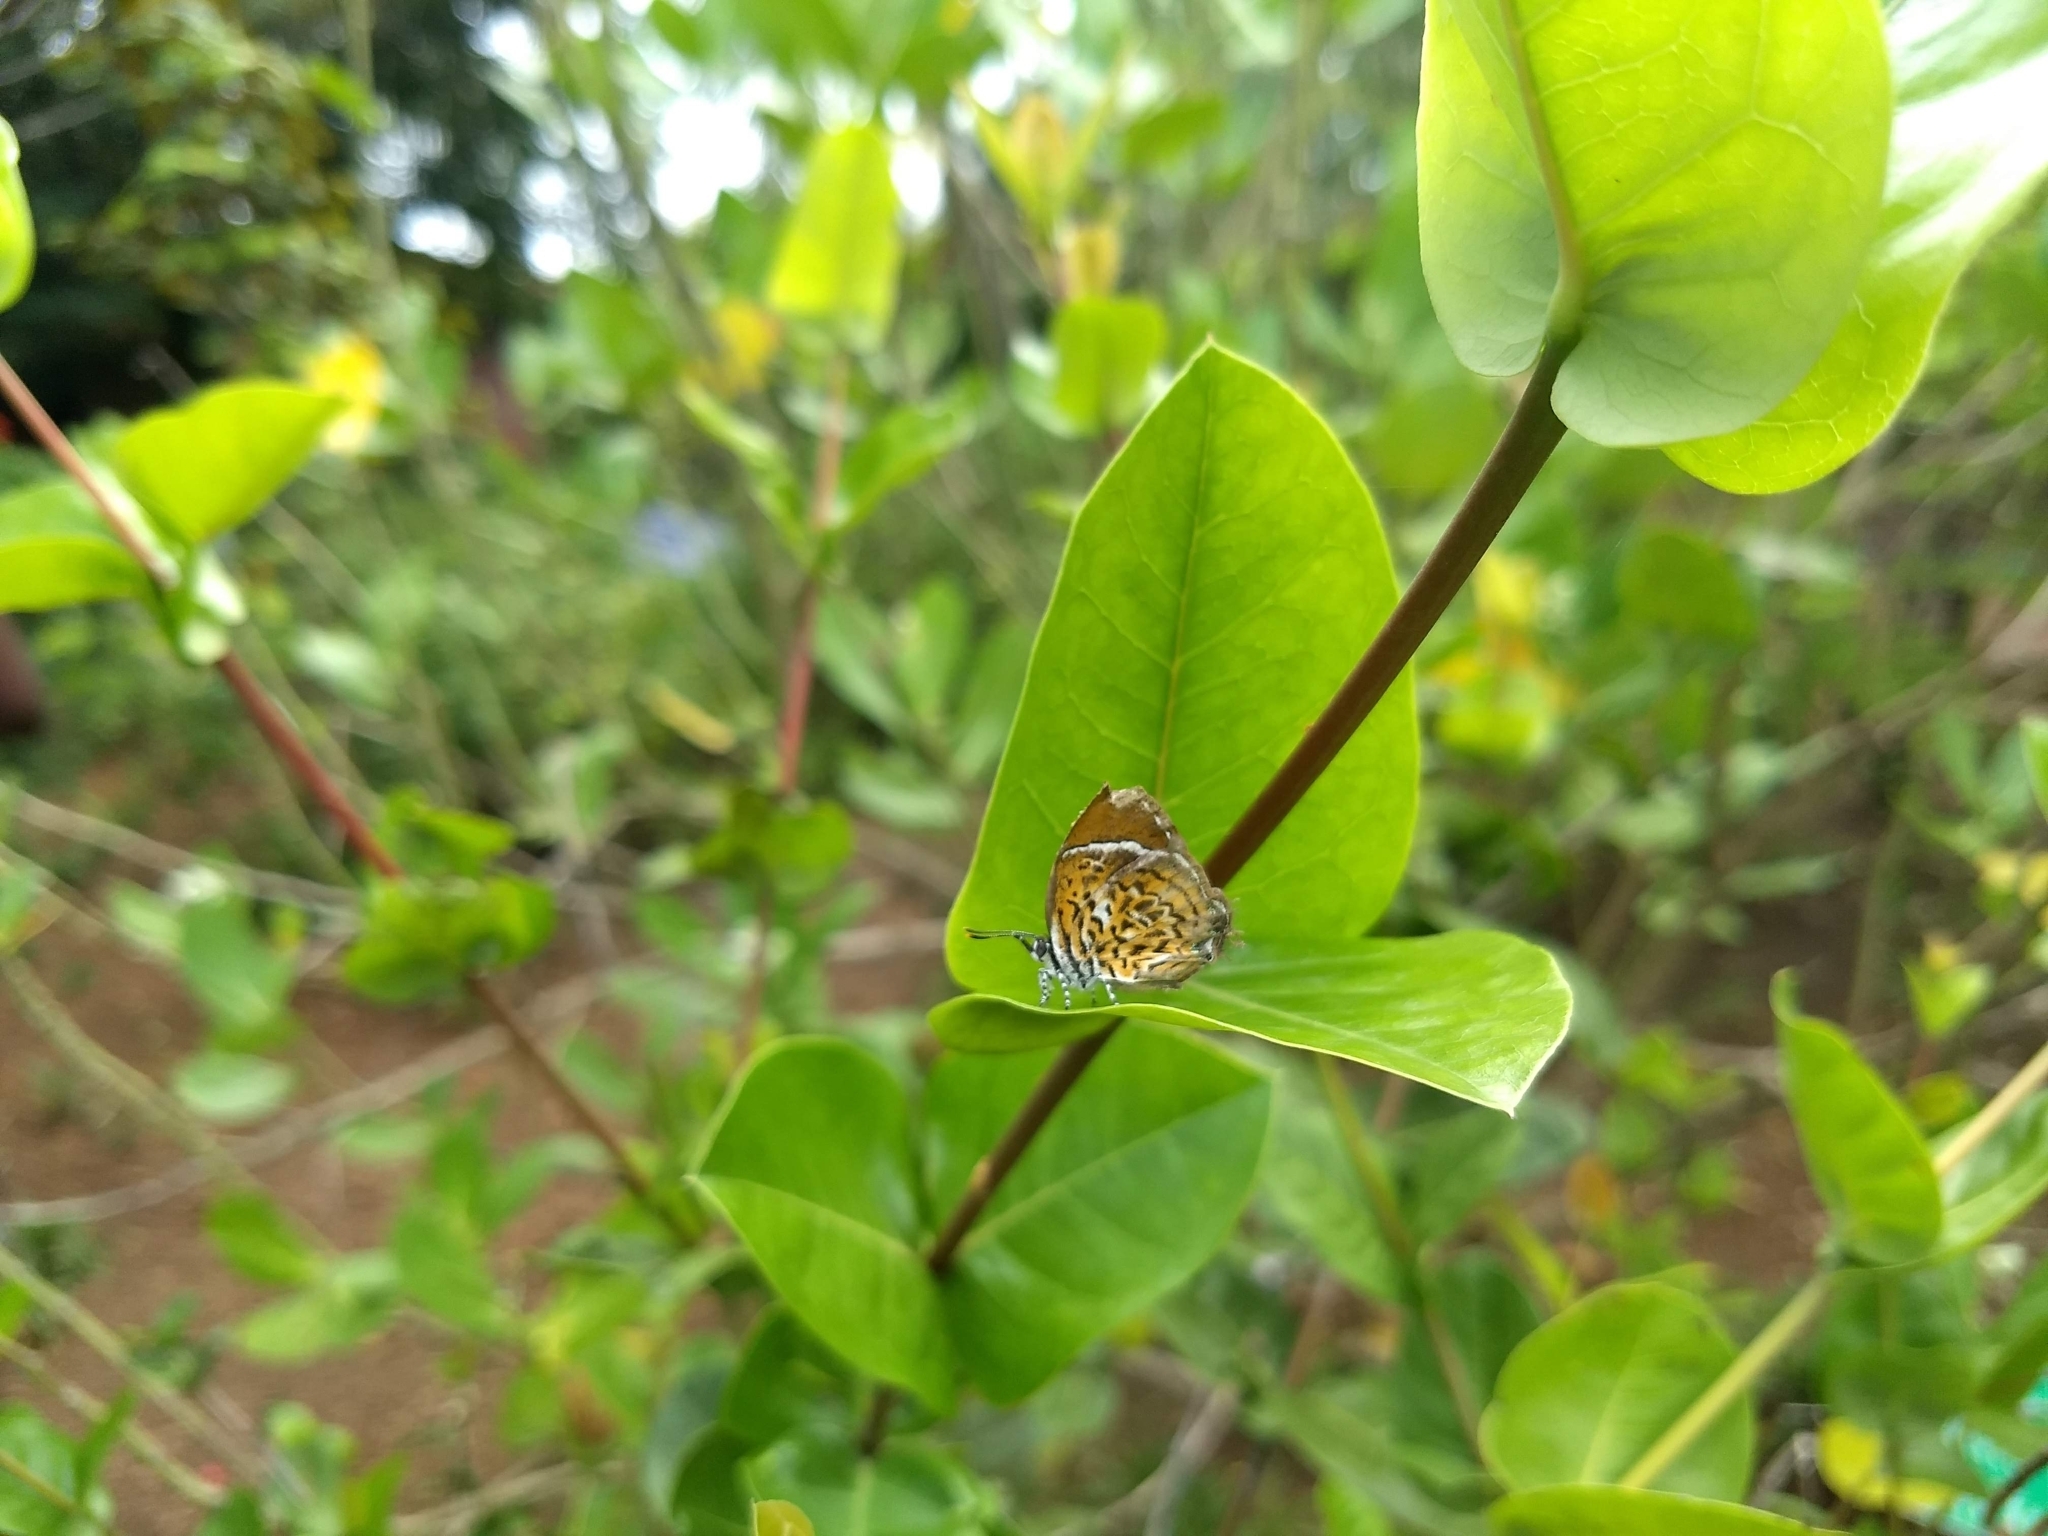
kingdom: Animalia
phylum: Arthropoda
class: Insecta
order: Lepidoptera
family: Lycaenidae
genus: Rathinda
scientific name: Rathinda amor
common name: Monkey puzzle
